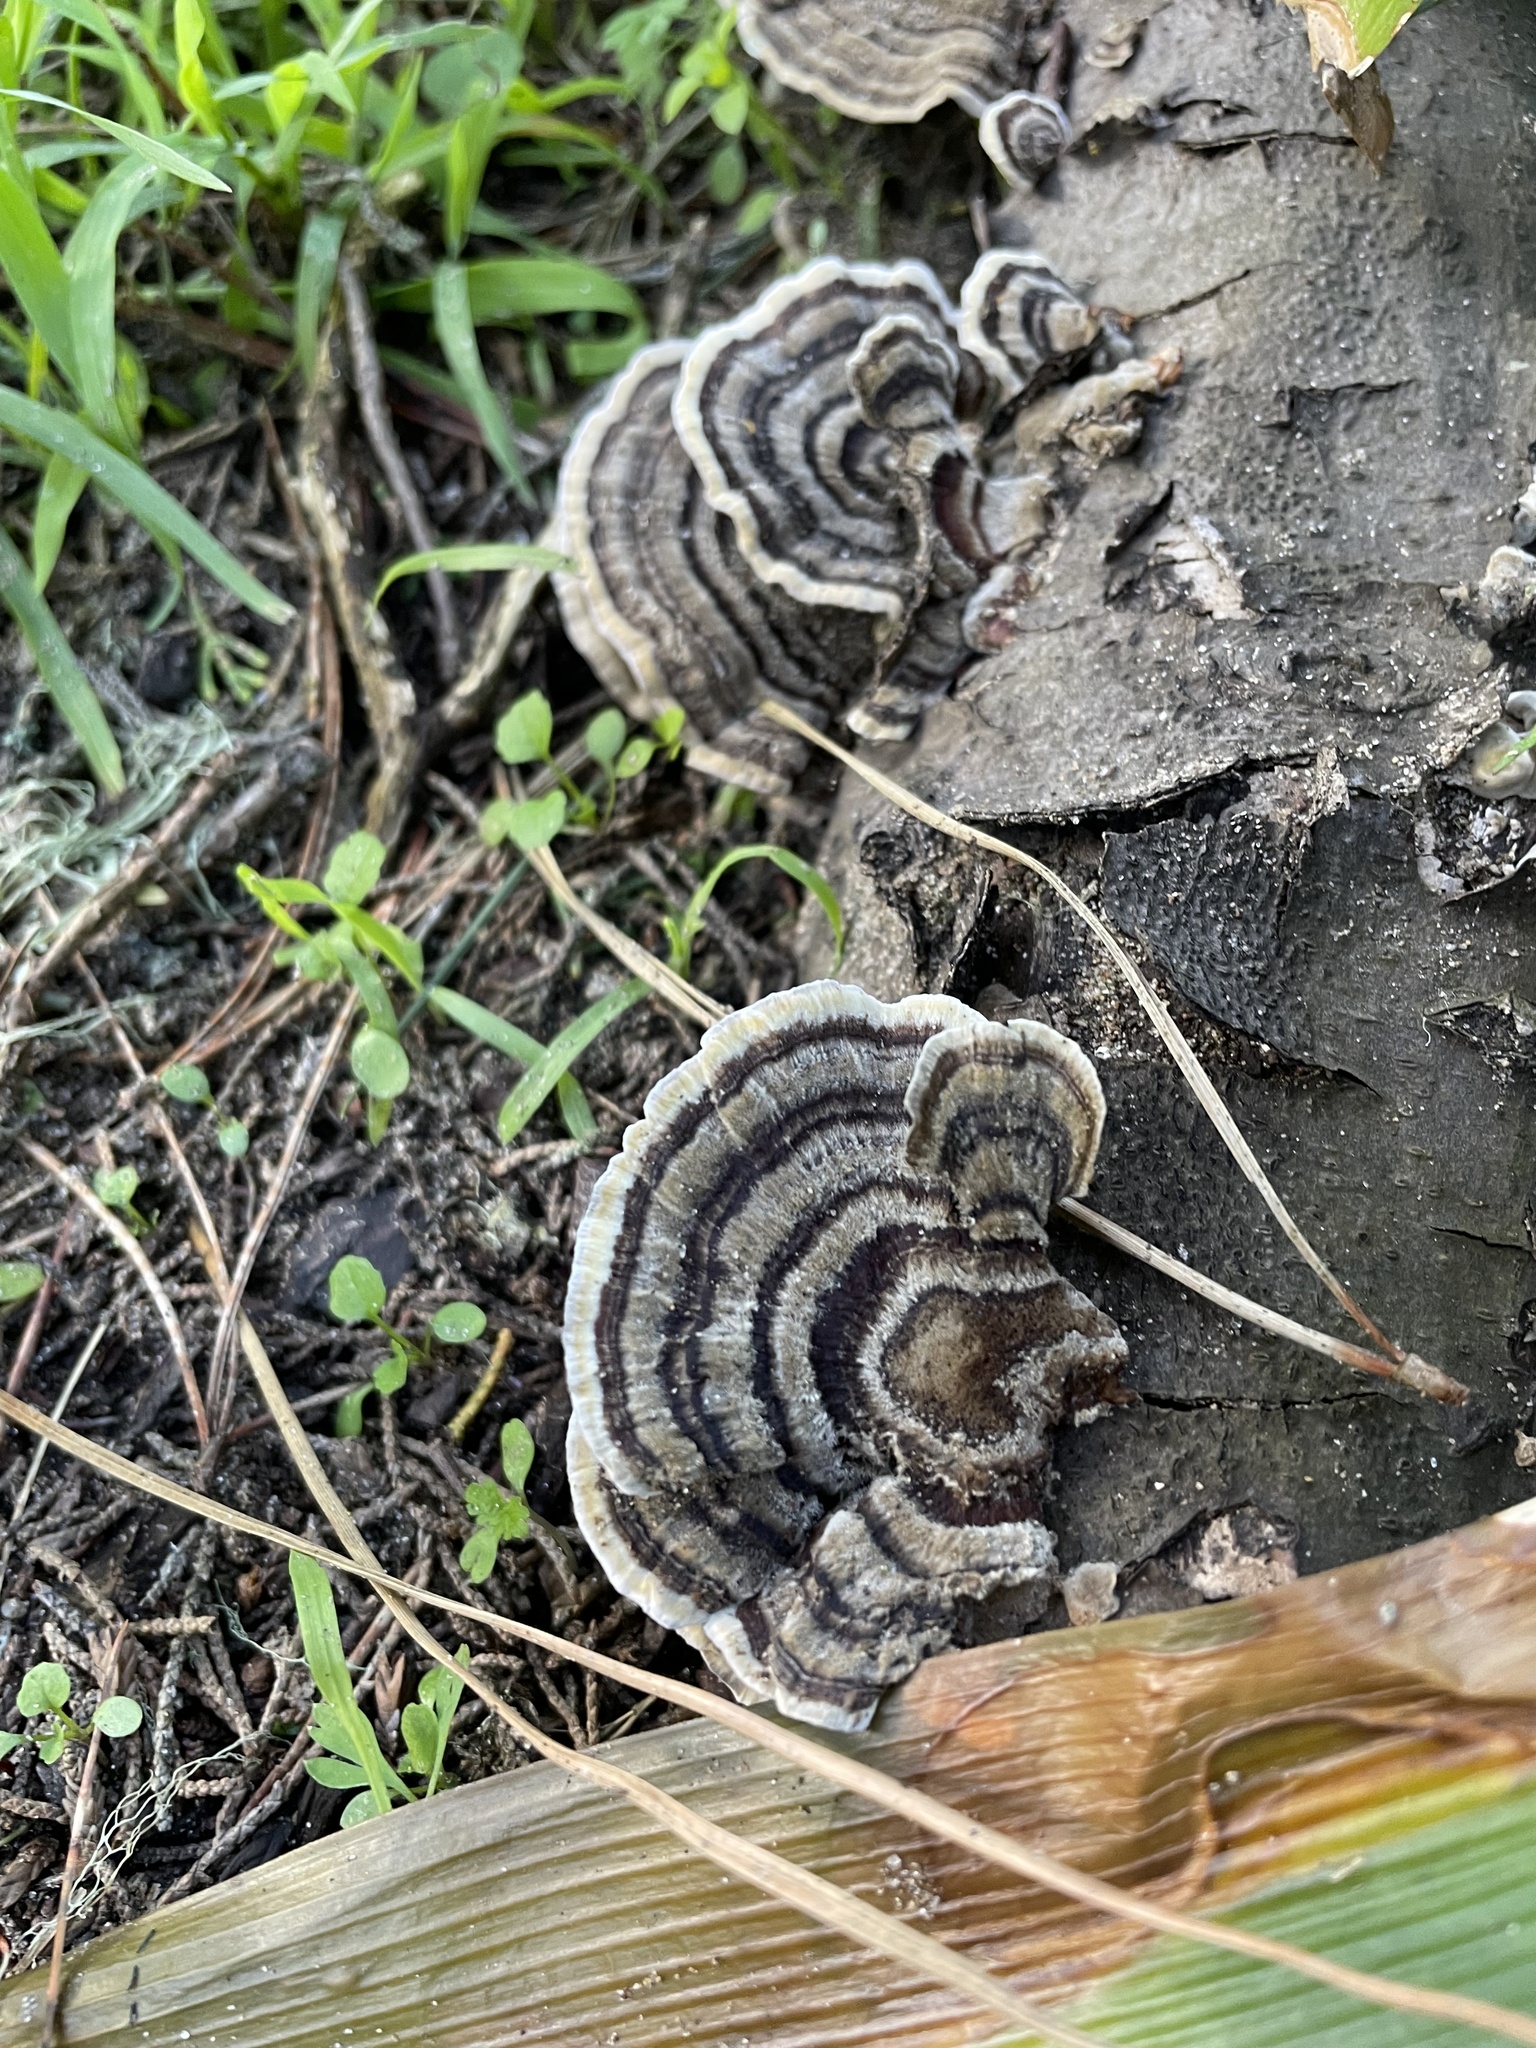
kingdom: Fungi
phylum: Basidiomycota
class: Agaricomycetes
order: Polyporales
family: Polyporaceae
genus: Trametes
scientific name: Trametes versicolor
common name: Turkeytail
